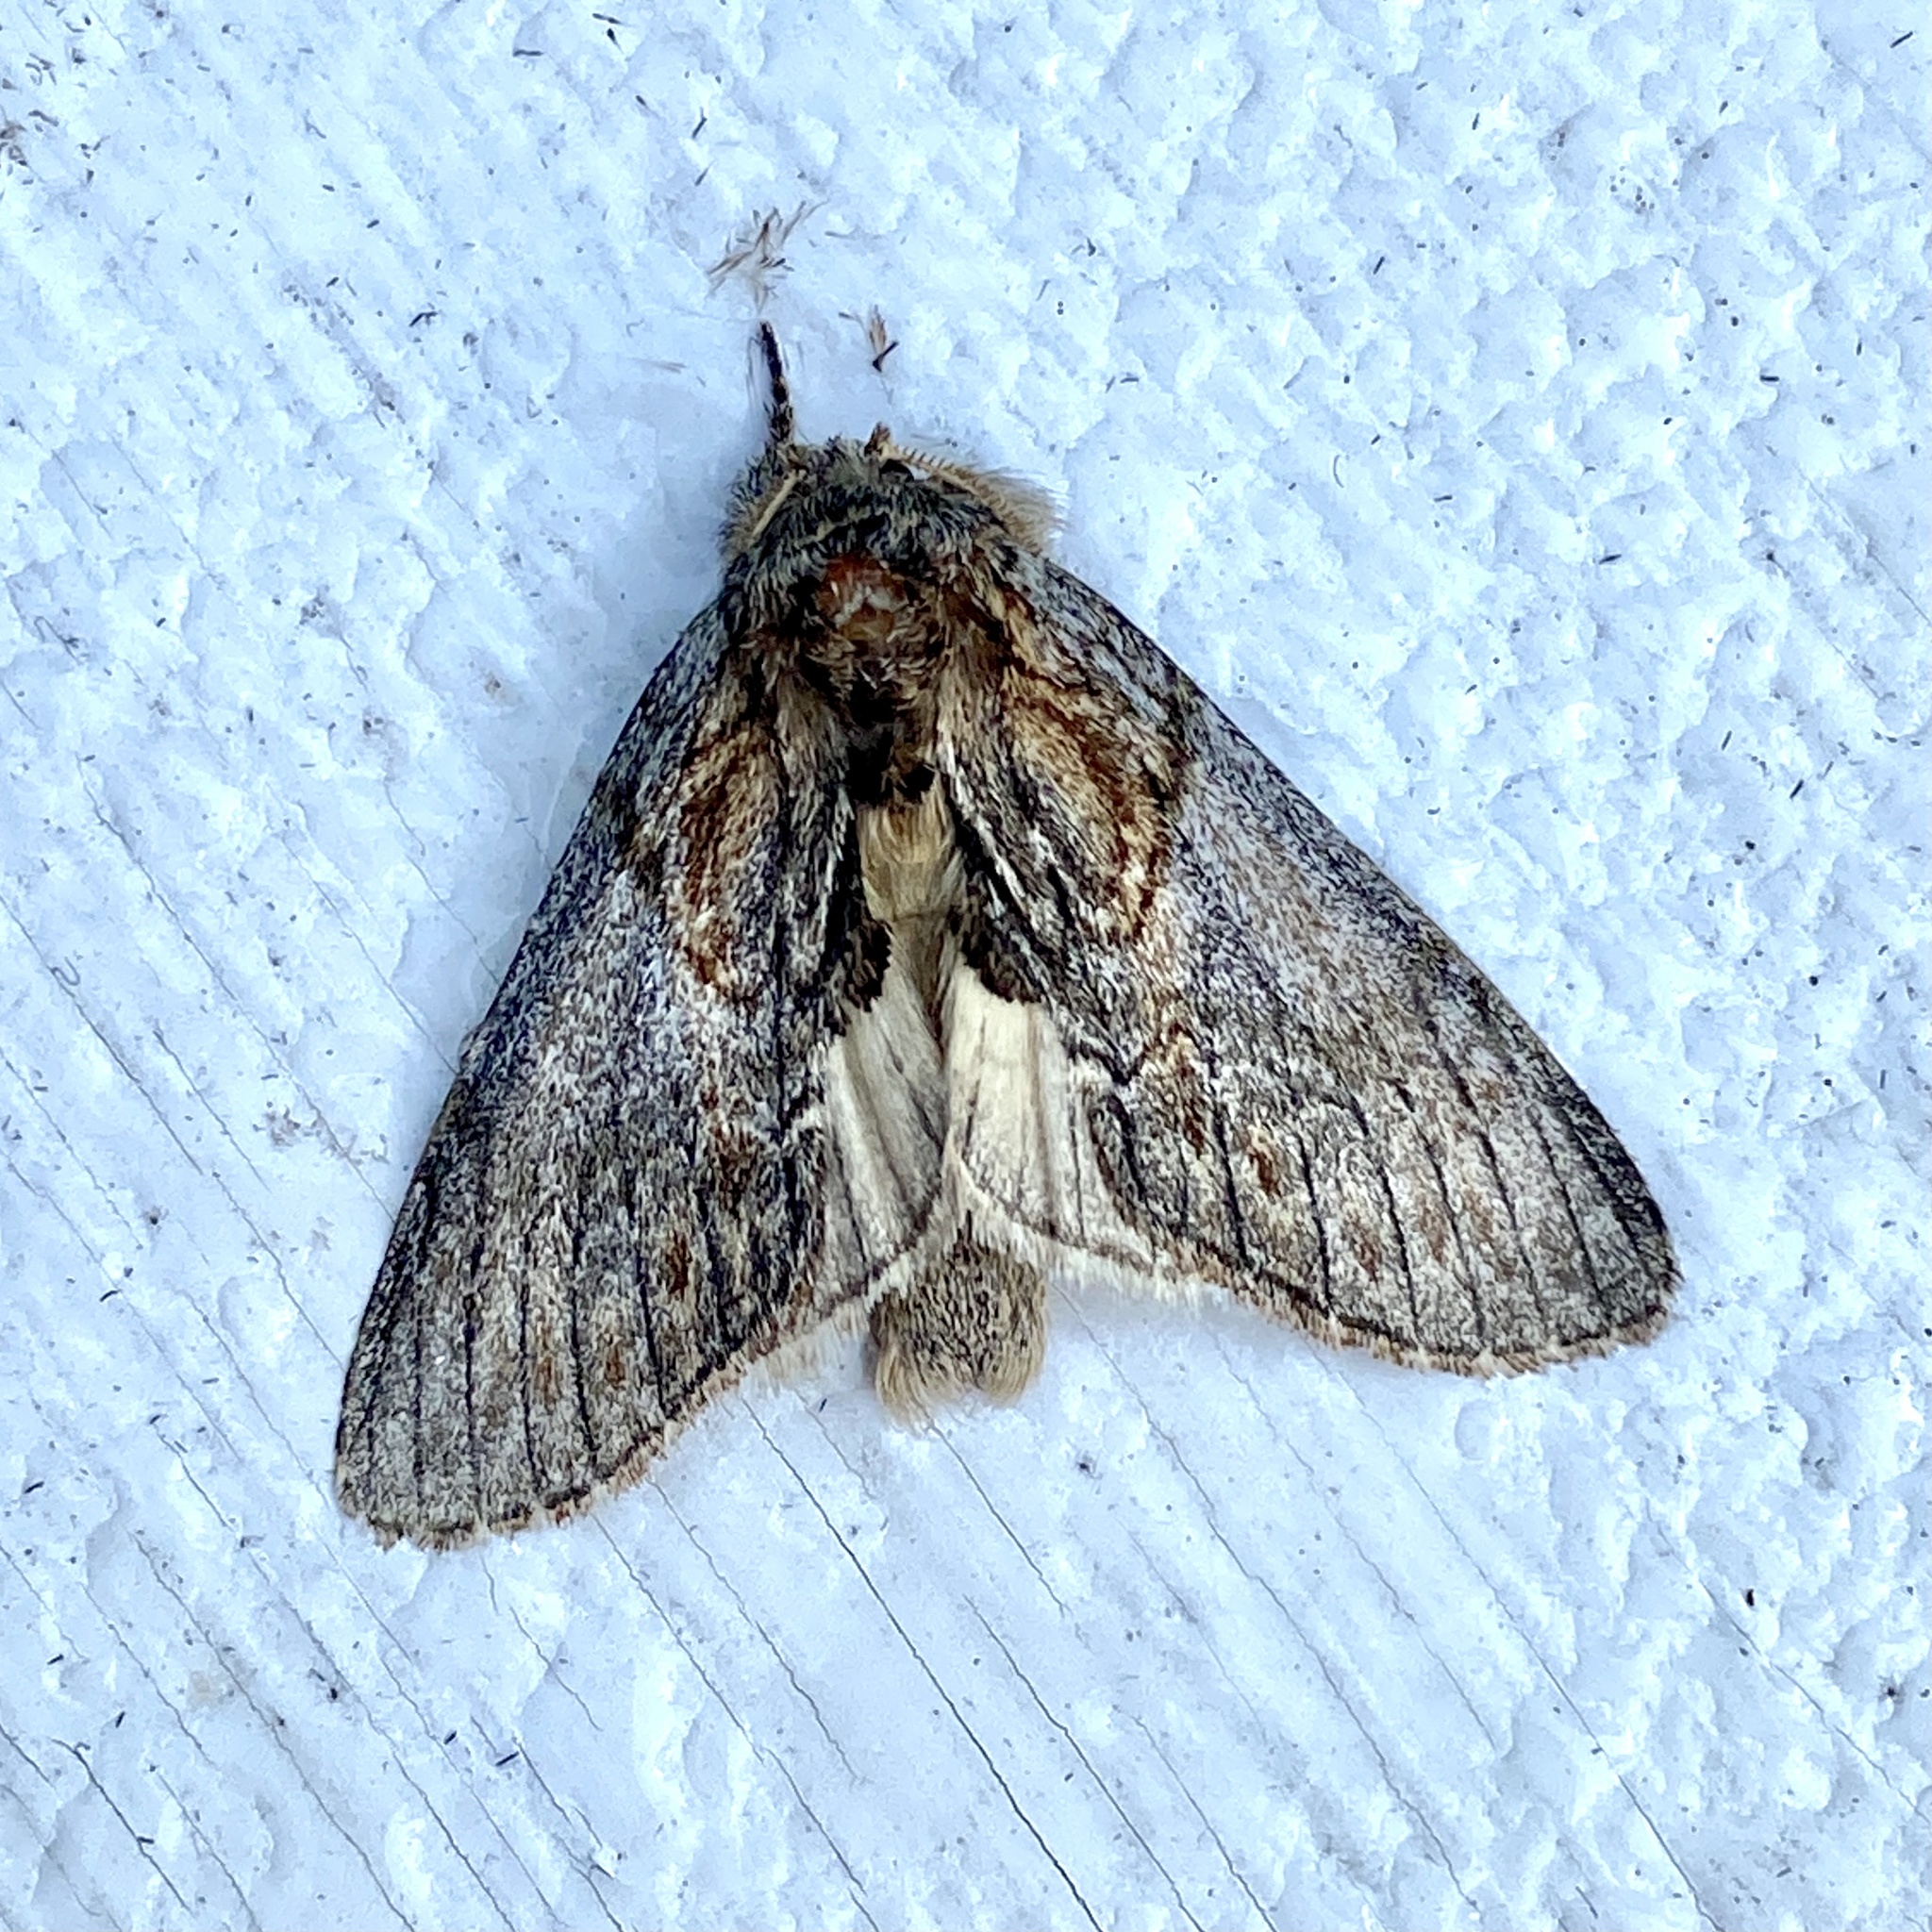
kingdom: Animalia
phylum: Arthropoda
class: Insecta
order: Lepidoptera
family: Notodontidae
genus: Peridea
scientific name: Peridea basitriens
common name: Oval-based prominent
